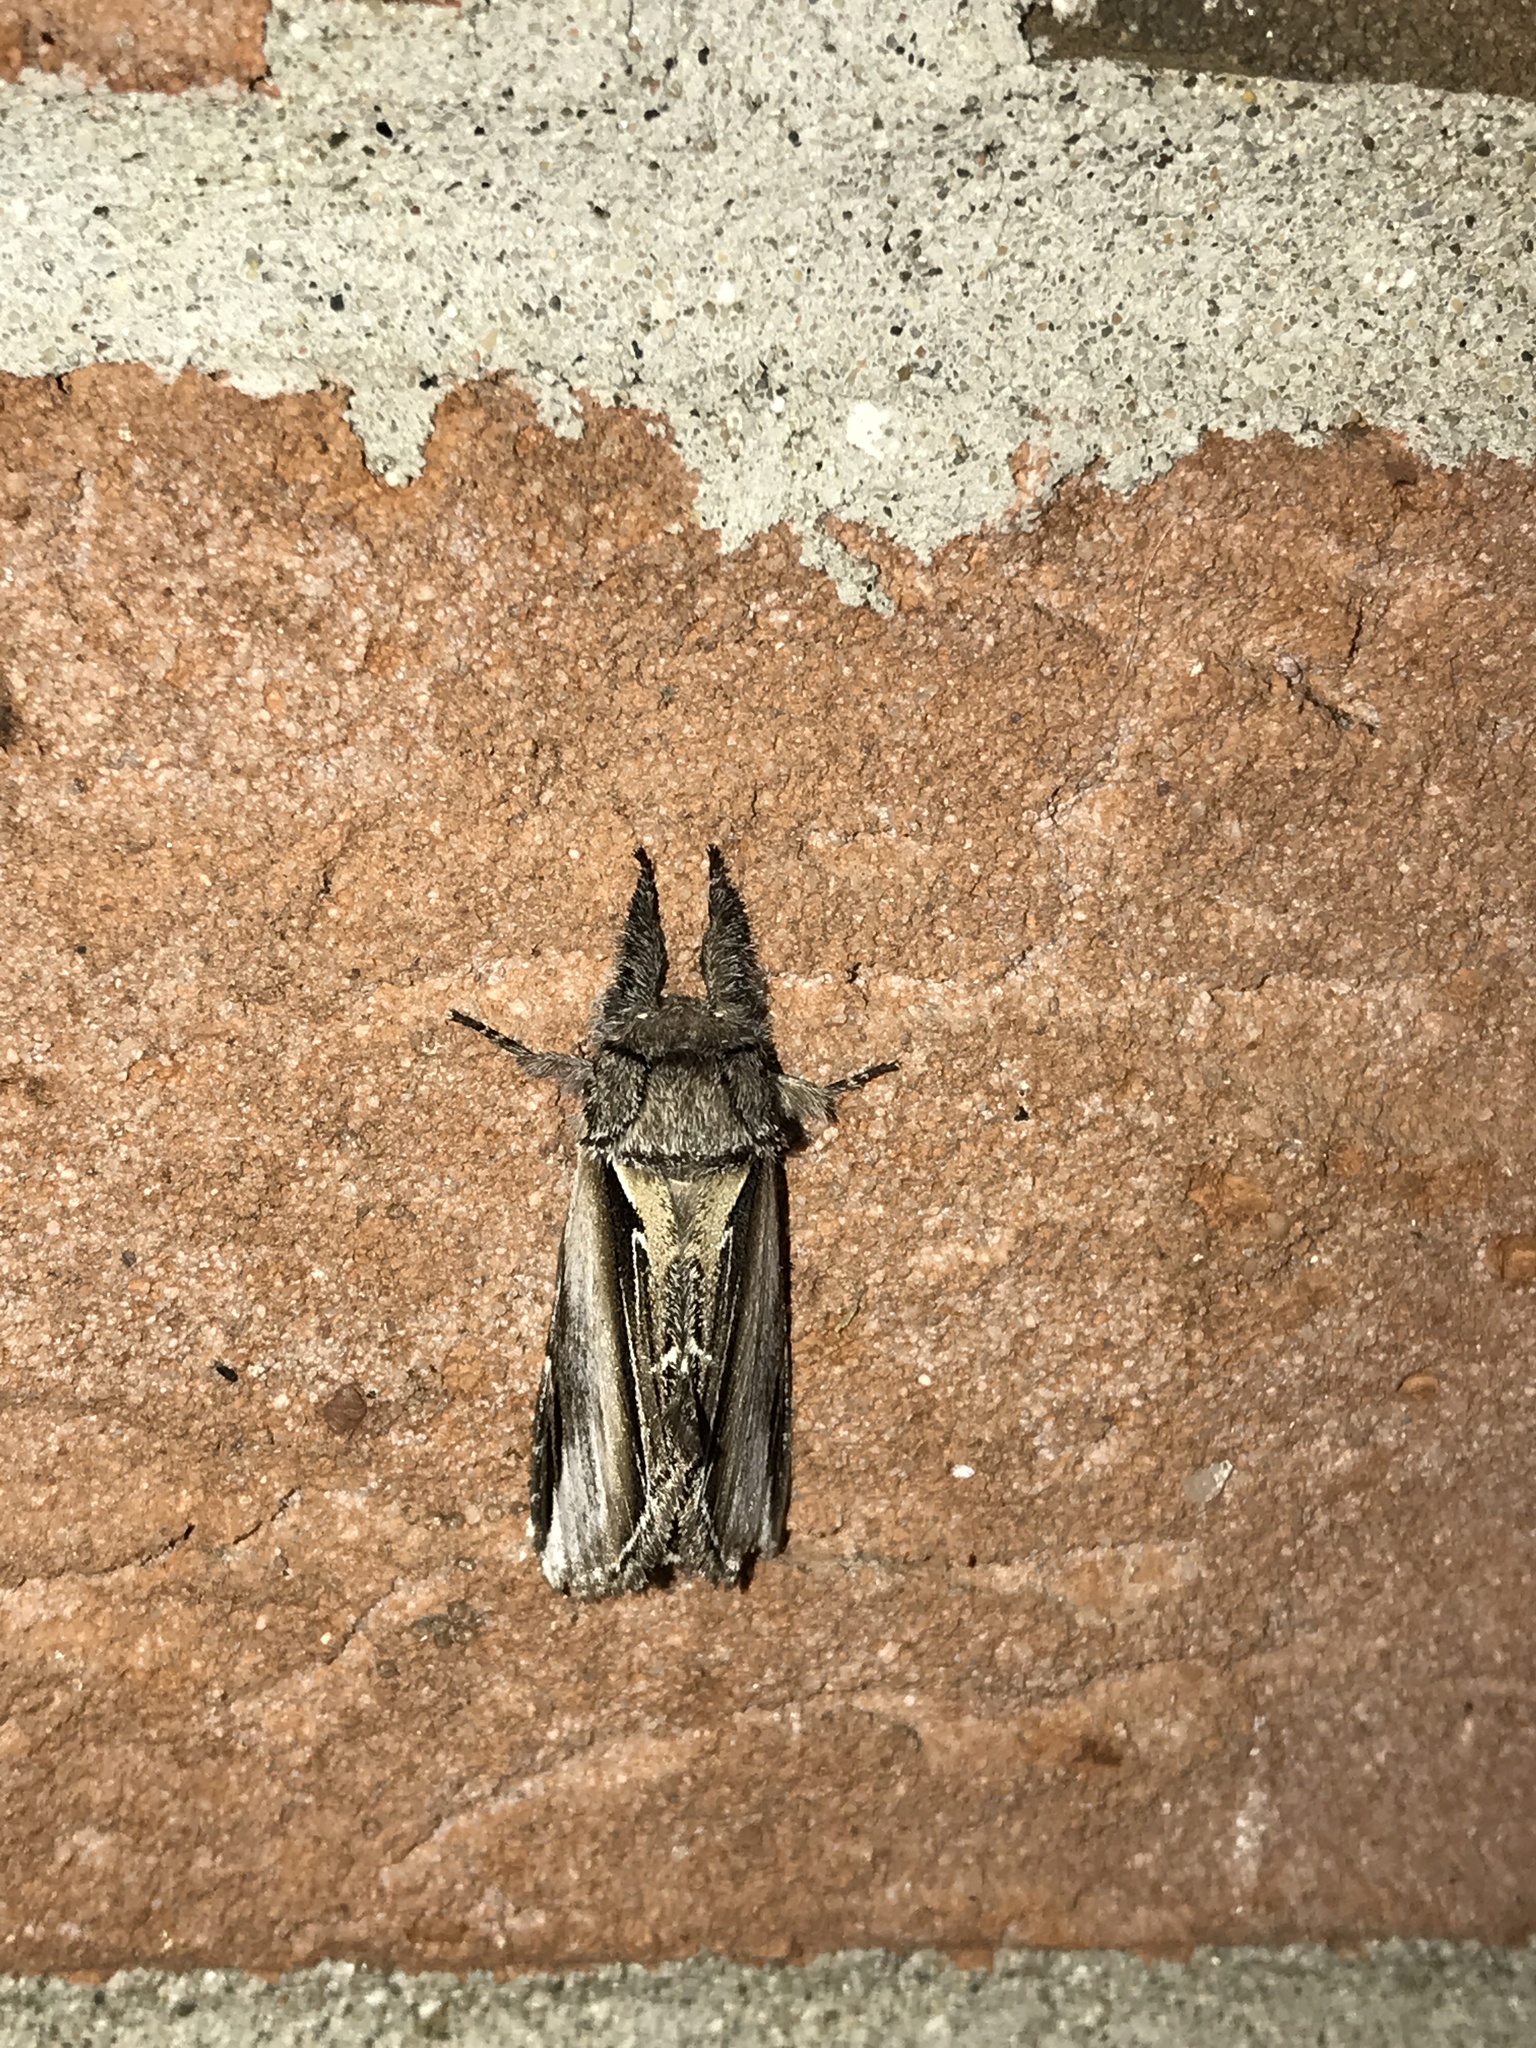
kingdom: Animalia
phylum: Arthropoda
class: Insecta
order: Lepidoptera
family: Notodontidae
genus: Pheosia
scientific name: Pheosia rimosa
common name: Black-rimmed prominent
